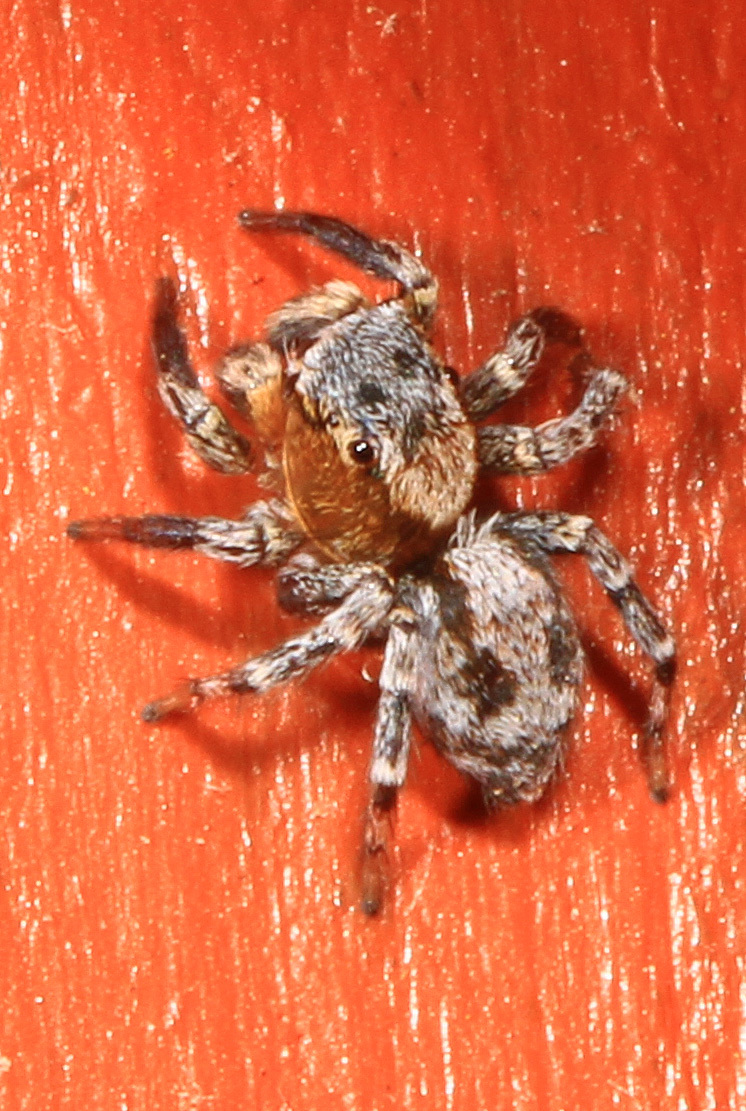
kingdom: Animalia
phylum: Arthropoda
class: Arachnida
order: Araneae
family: Salticidae
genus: Naphrys
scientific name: Naphrys pulex
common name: Flea jumping spider
